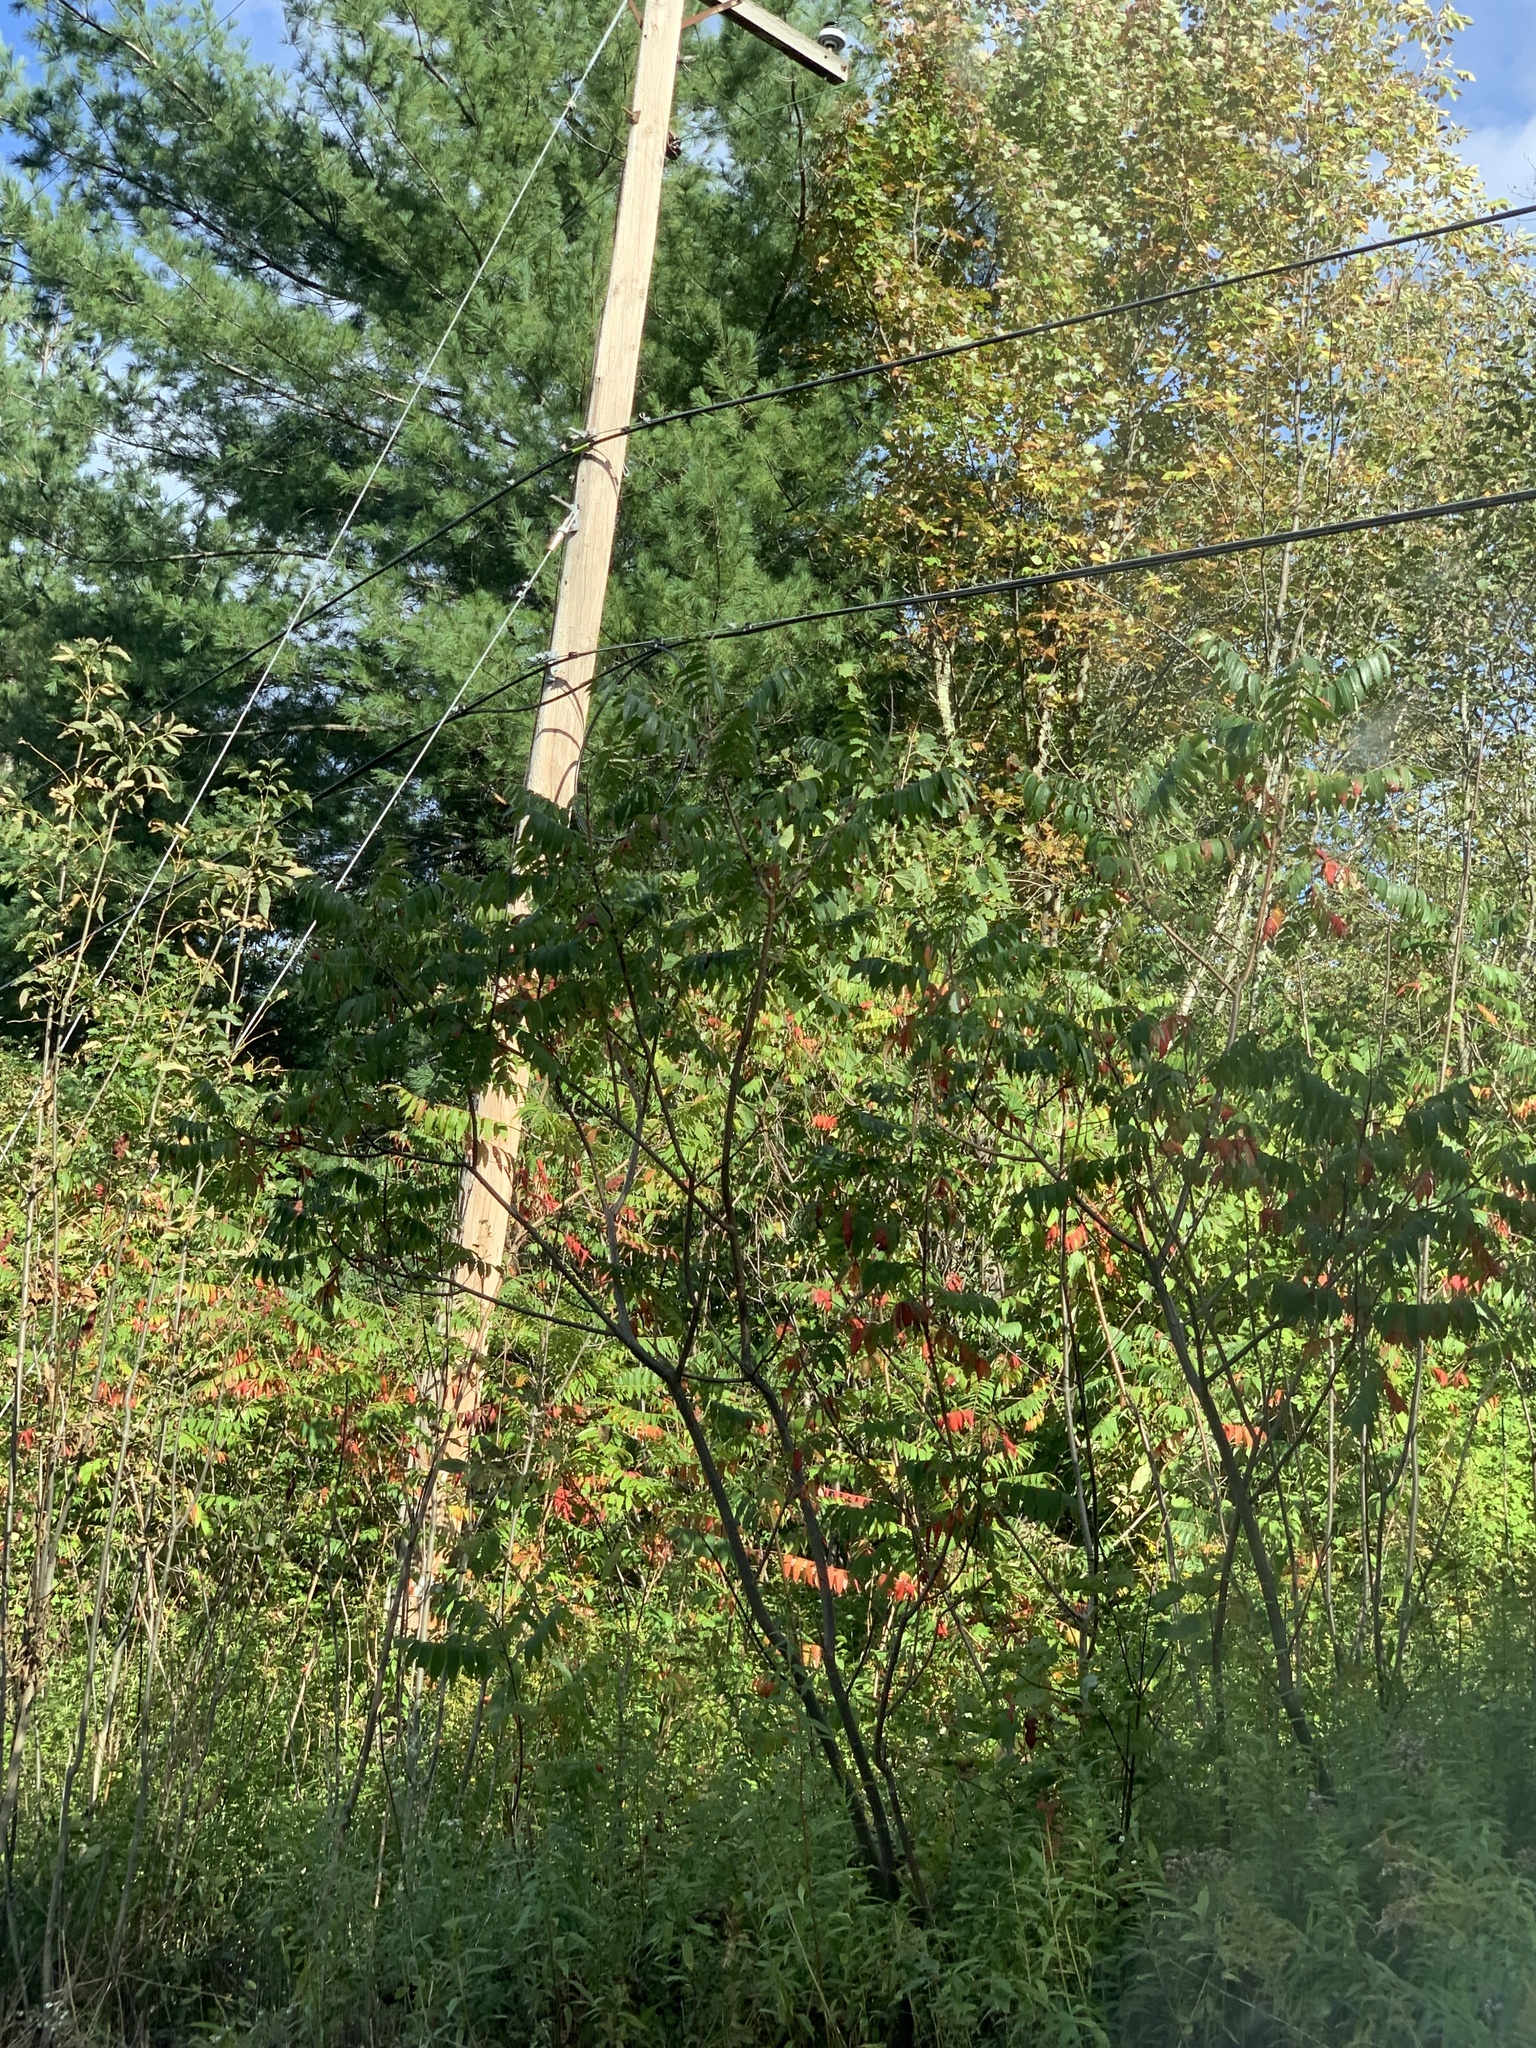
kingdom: Plantae
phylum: Tracheophyta
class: Magnoliopsida
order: Sapindales
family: Anacardiaceae
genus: Rhus
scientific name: Rhus typhina
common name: Staghorn sumac
